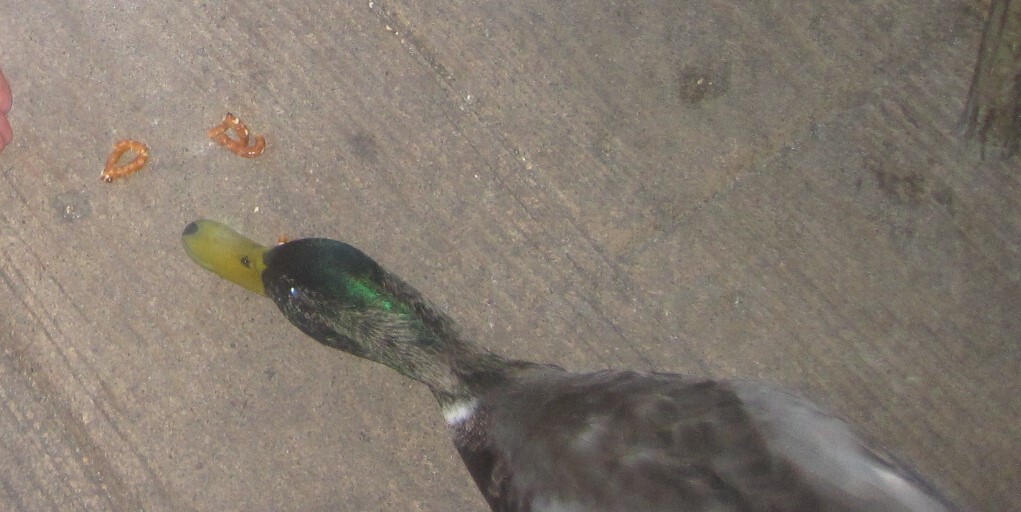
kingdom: Animalia
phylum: Chordata
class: Aves
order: Anseriformes
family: Anatidae
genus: Anas
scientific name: Anas platyrhynchos
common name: Mallard
